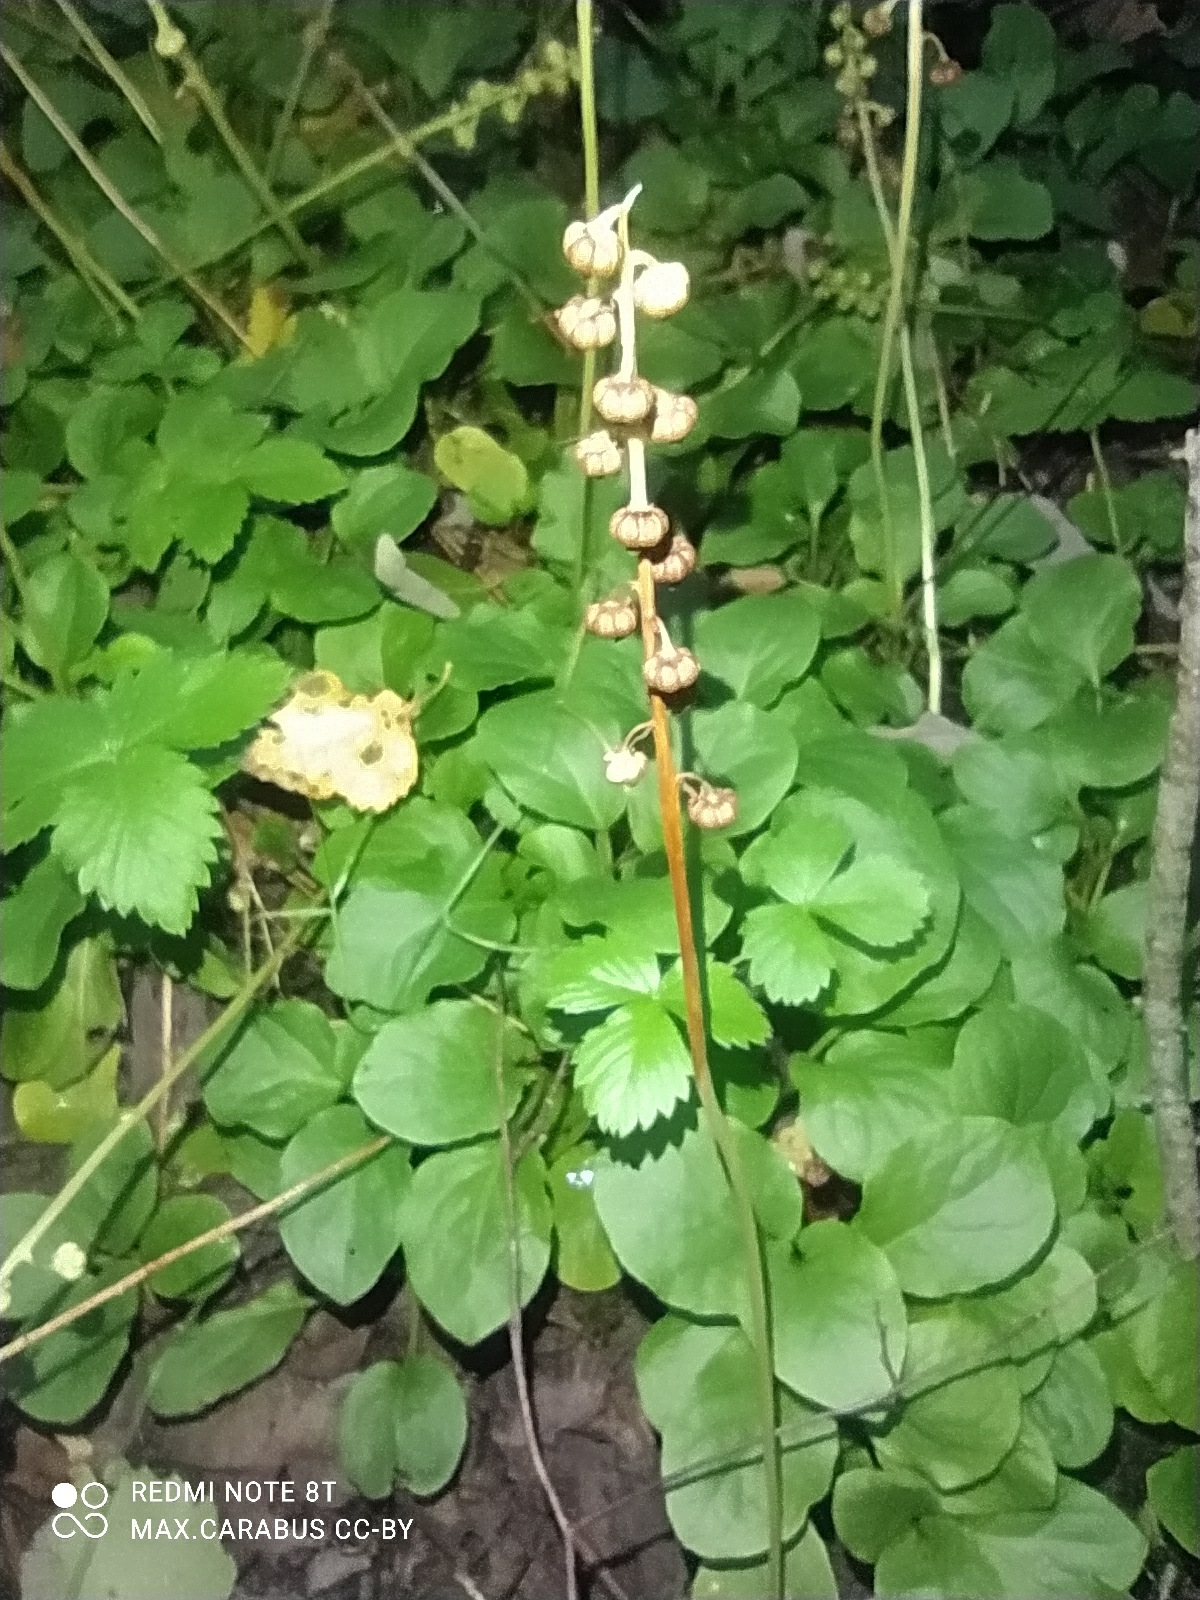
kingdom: Plantae
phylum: Tracheophyta
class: Magnoliopsida
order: Ericales
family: Ericaceae
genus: Pyrola
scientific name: Pyrola minor
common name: Common wintergreen
